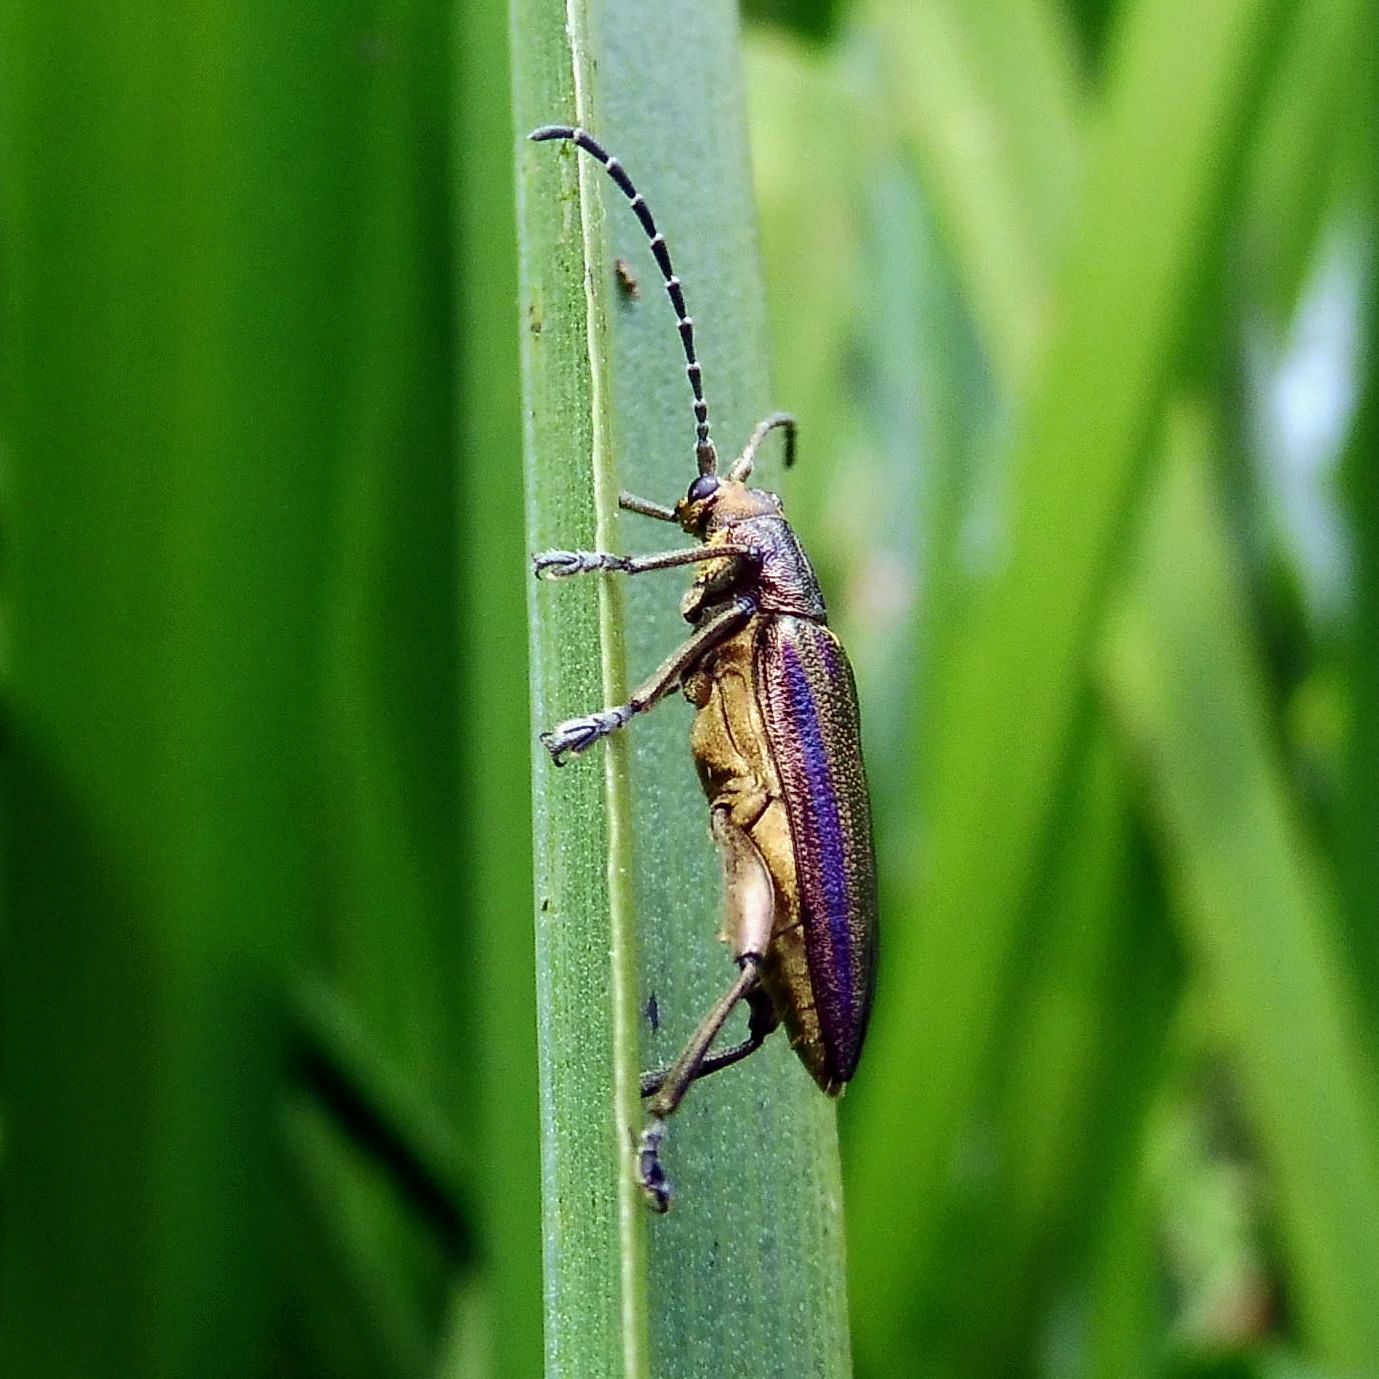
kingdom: Animalia
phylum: Arthropoda
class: Insecta
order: Coleoptera
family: Chrysomelidae
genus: Donacia
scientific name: Donacia marginata
